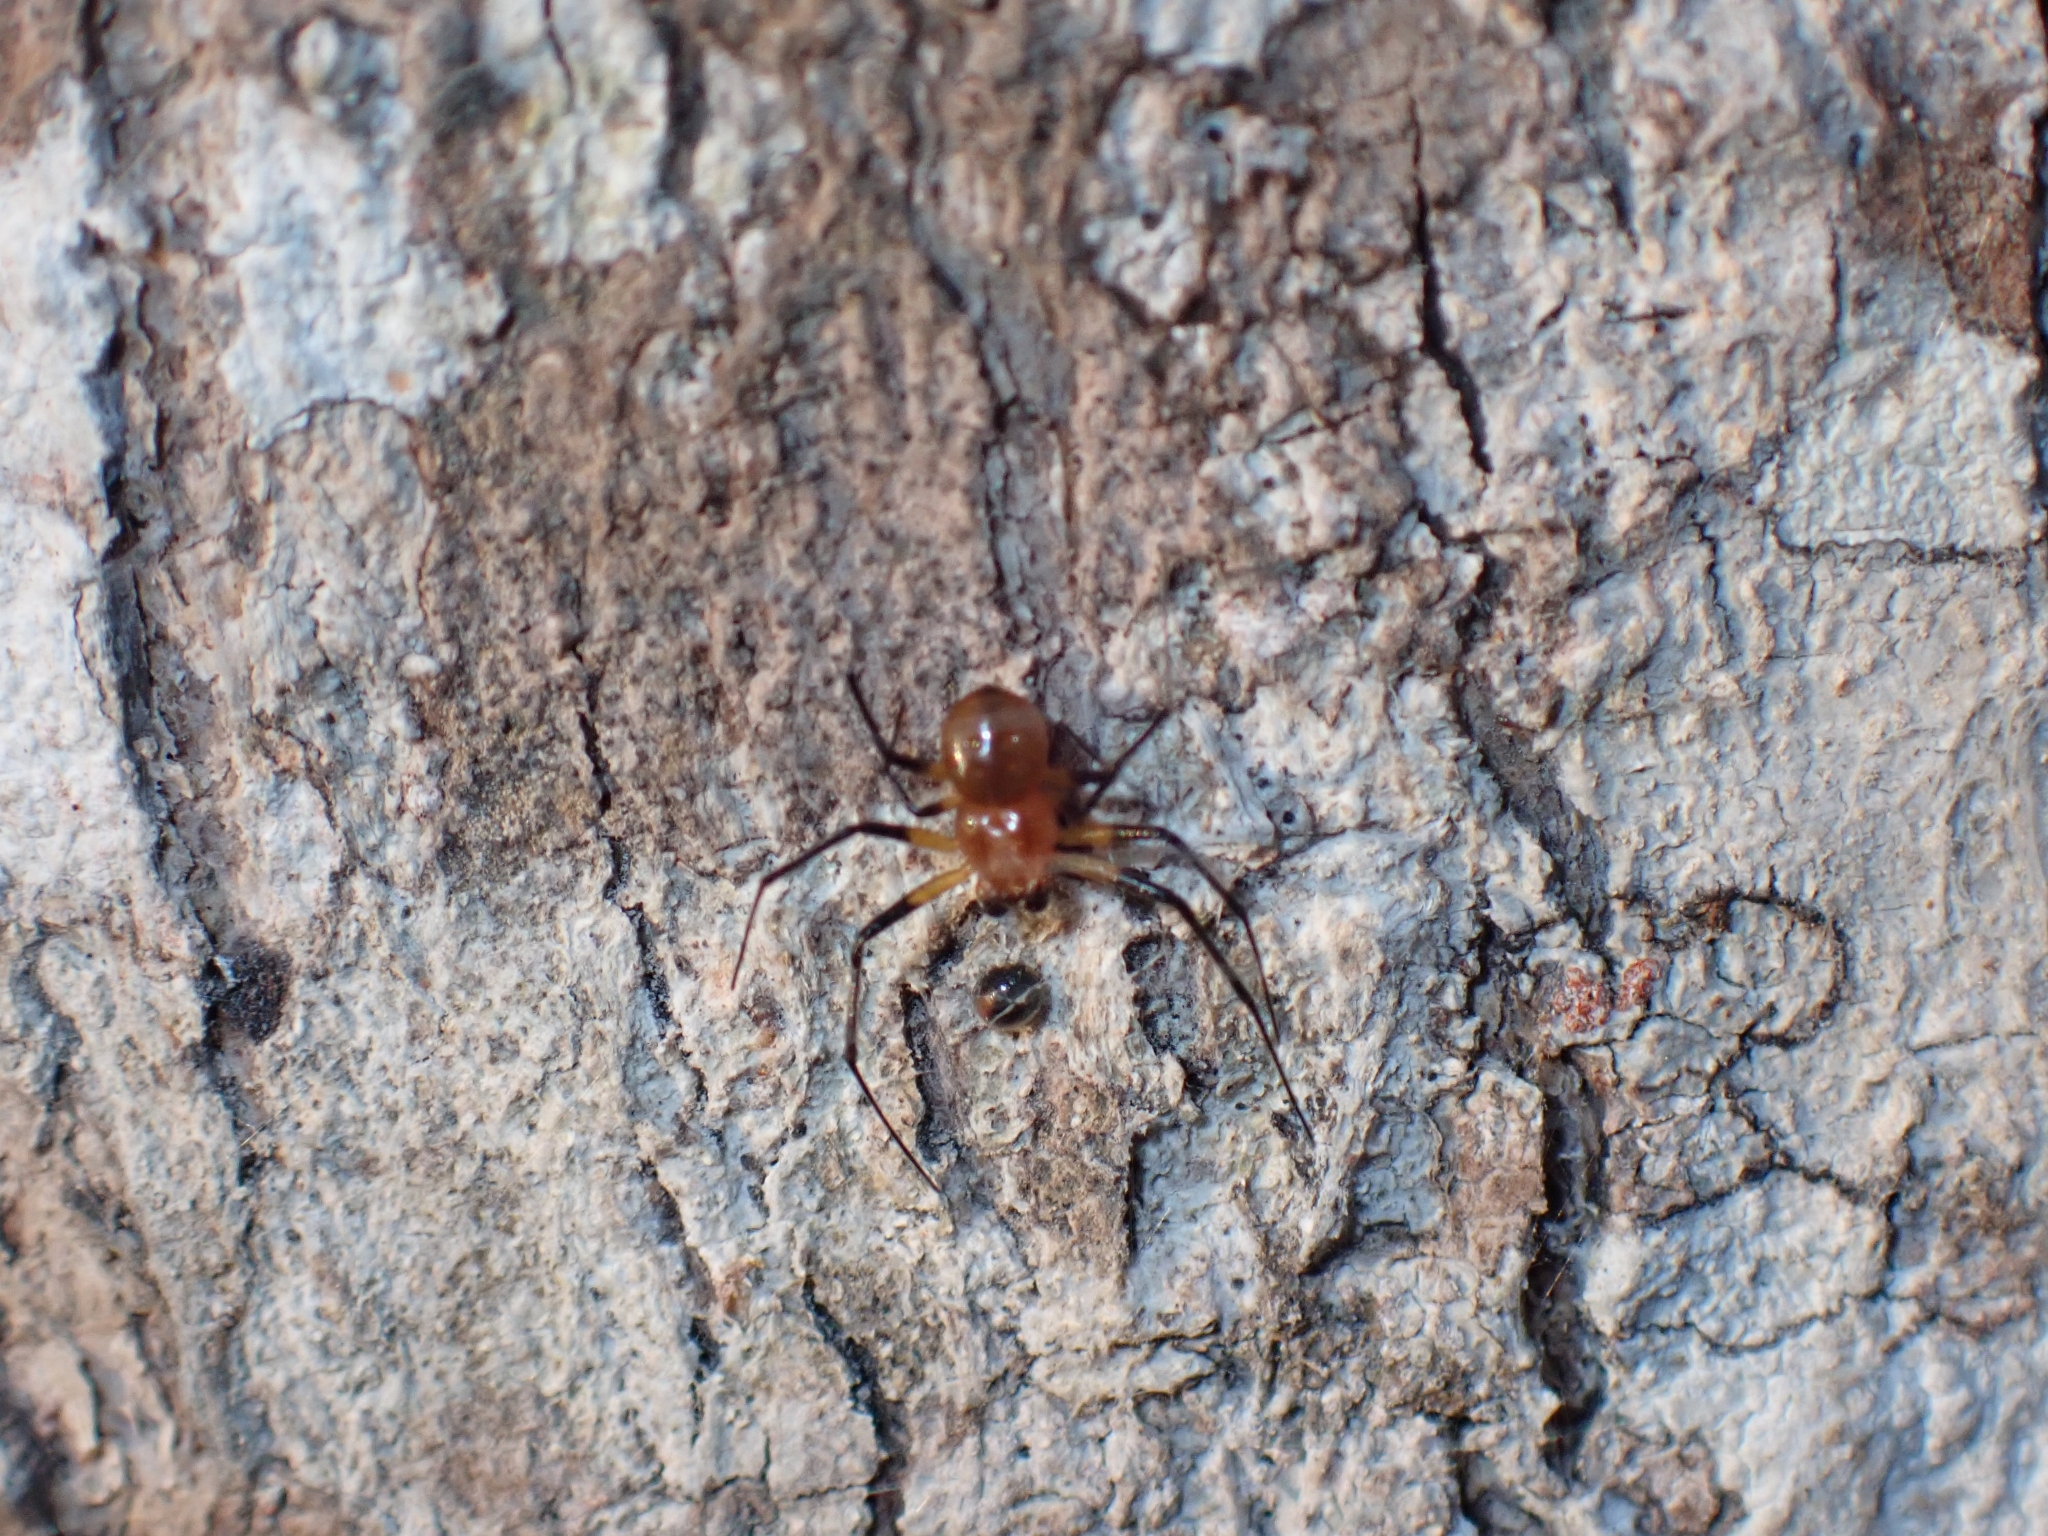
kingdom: Animalia
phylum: Arthropoda
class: Arachnida
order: Araneae
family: Araneidae
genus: Herennia
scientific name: Herennia multipuncta
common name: Spotted coin spider
